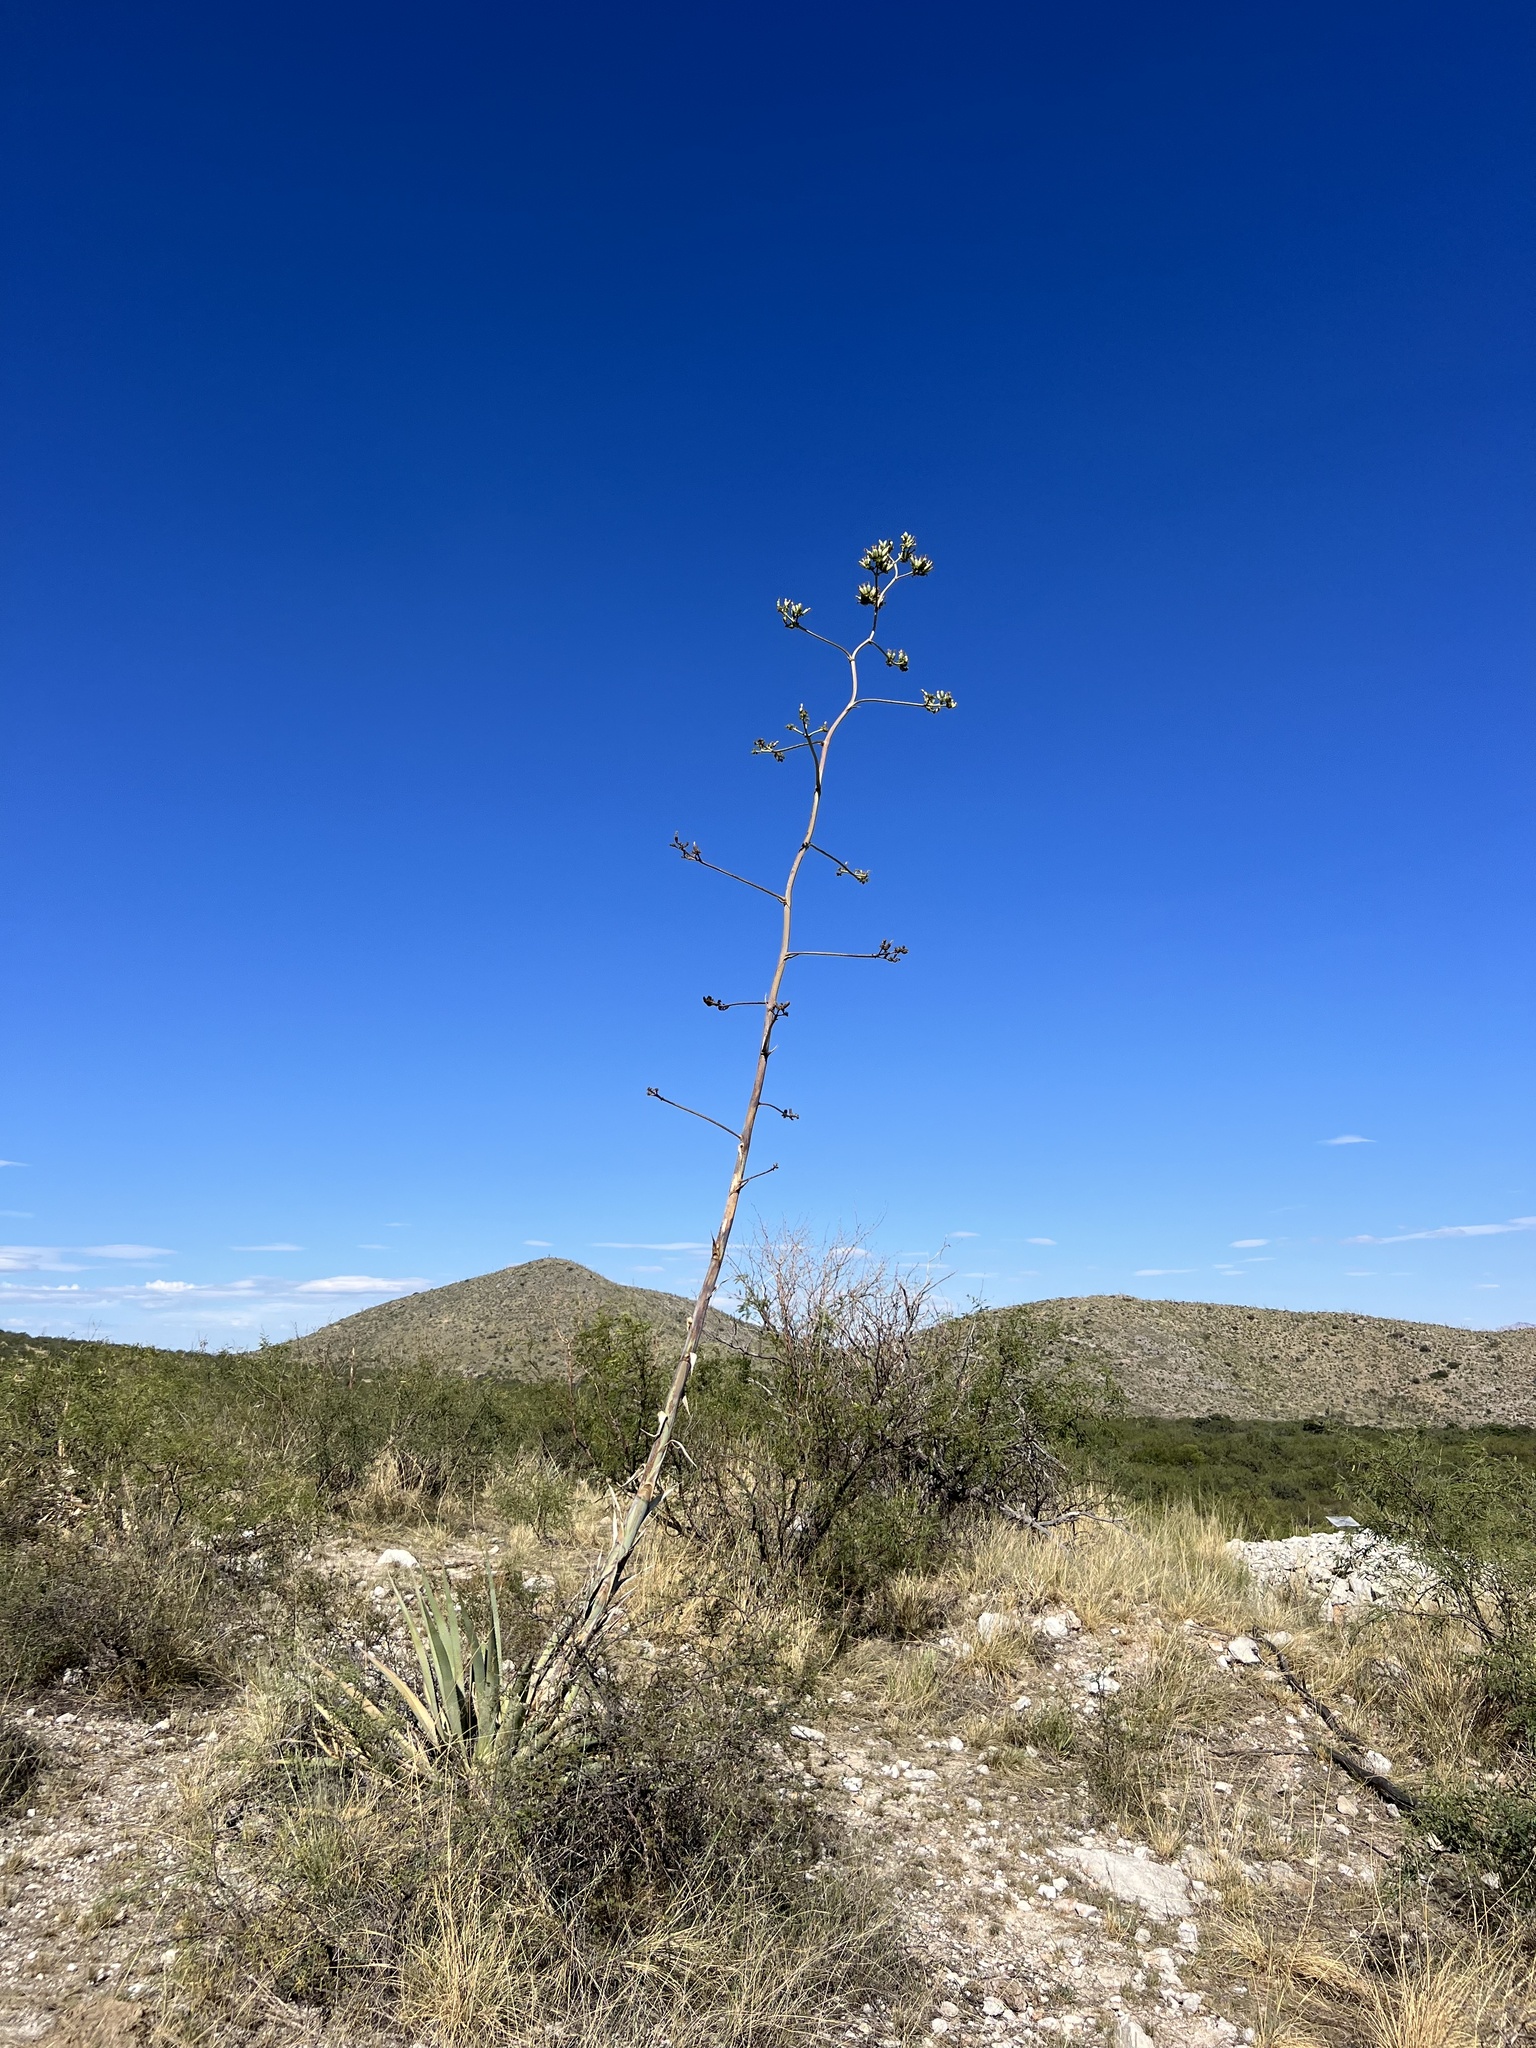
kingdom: Plantae
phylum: Tracheophyta
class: Liliopsida
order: Asparagales
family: Asparagaceae
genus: Agave
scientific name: Agave palmeri
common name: Palmer agave
